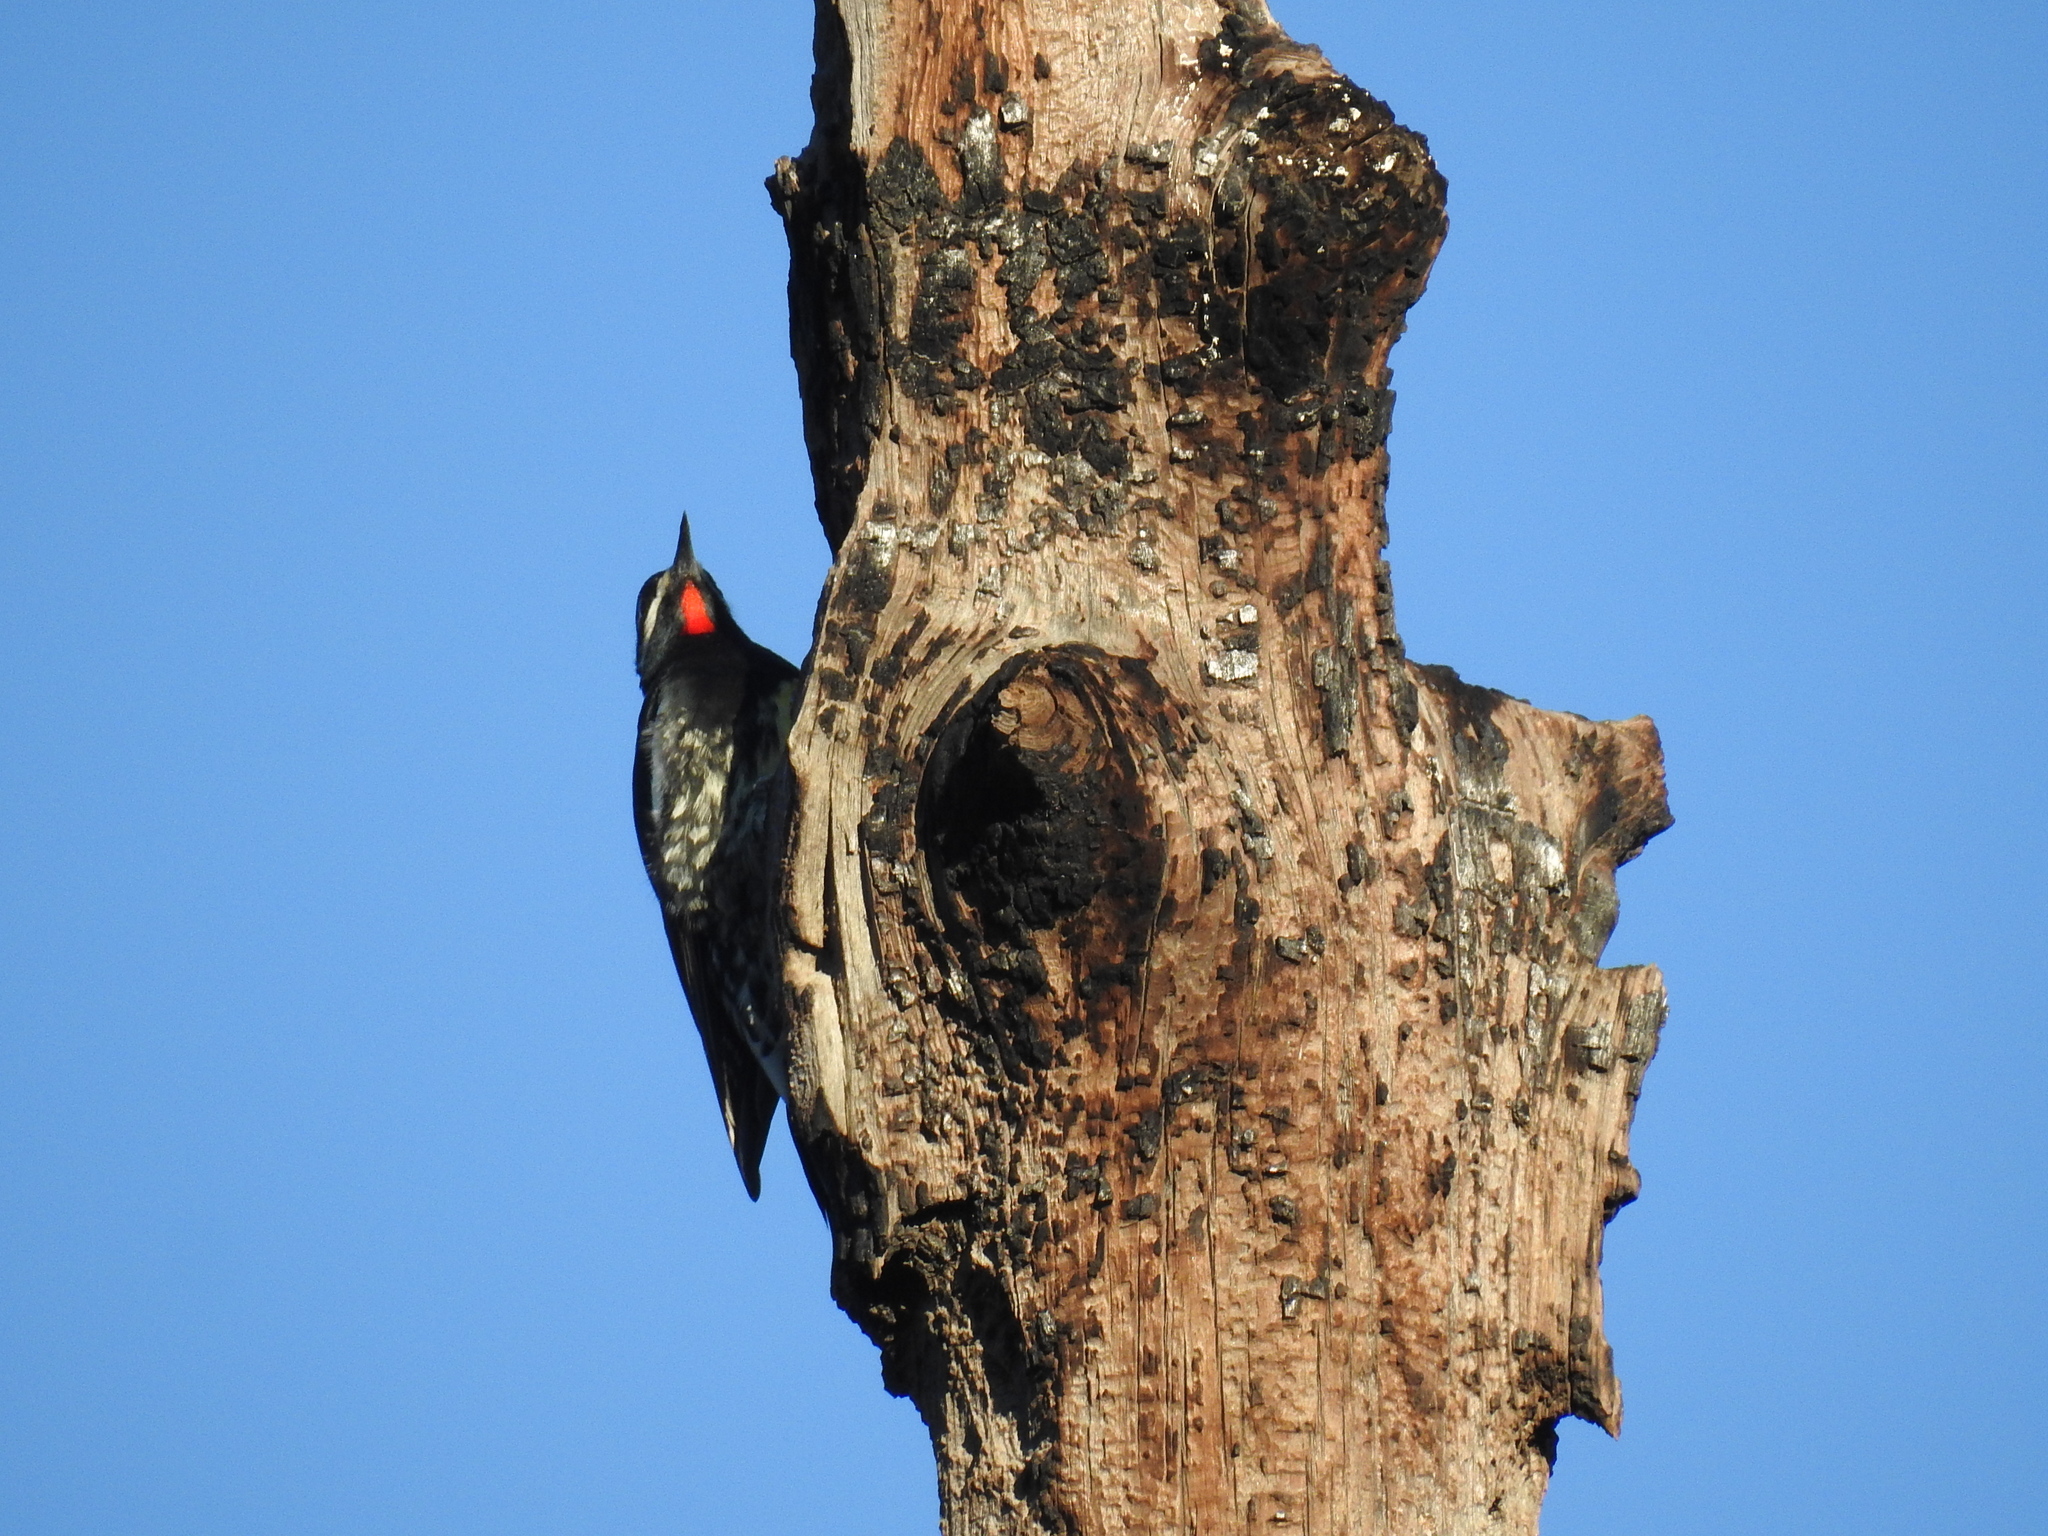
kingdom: Animalia
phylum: Chordata
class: Aves
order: Piciformes
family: Picidae
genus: Sphyrapicus
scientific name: Sphyrapicus thyroideus
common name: Williamson's sapsucker
